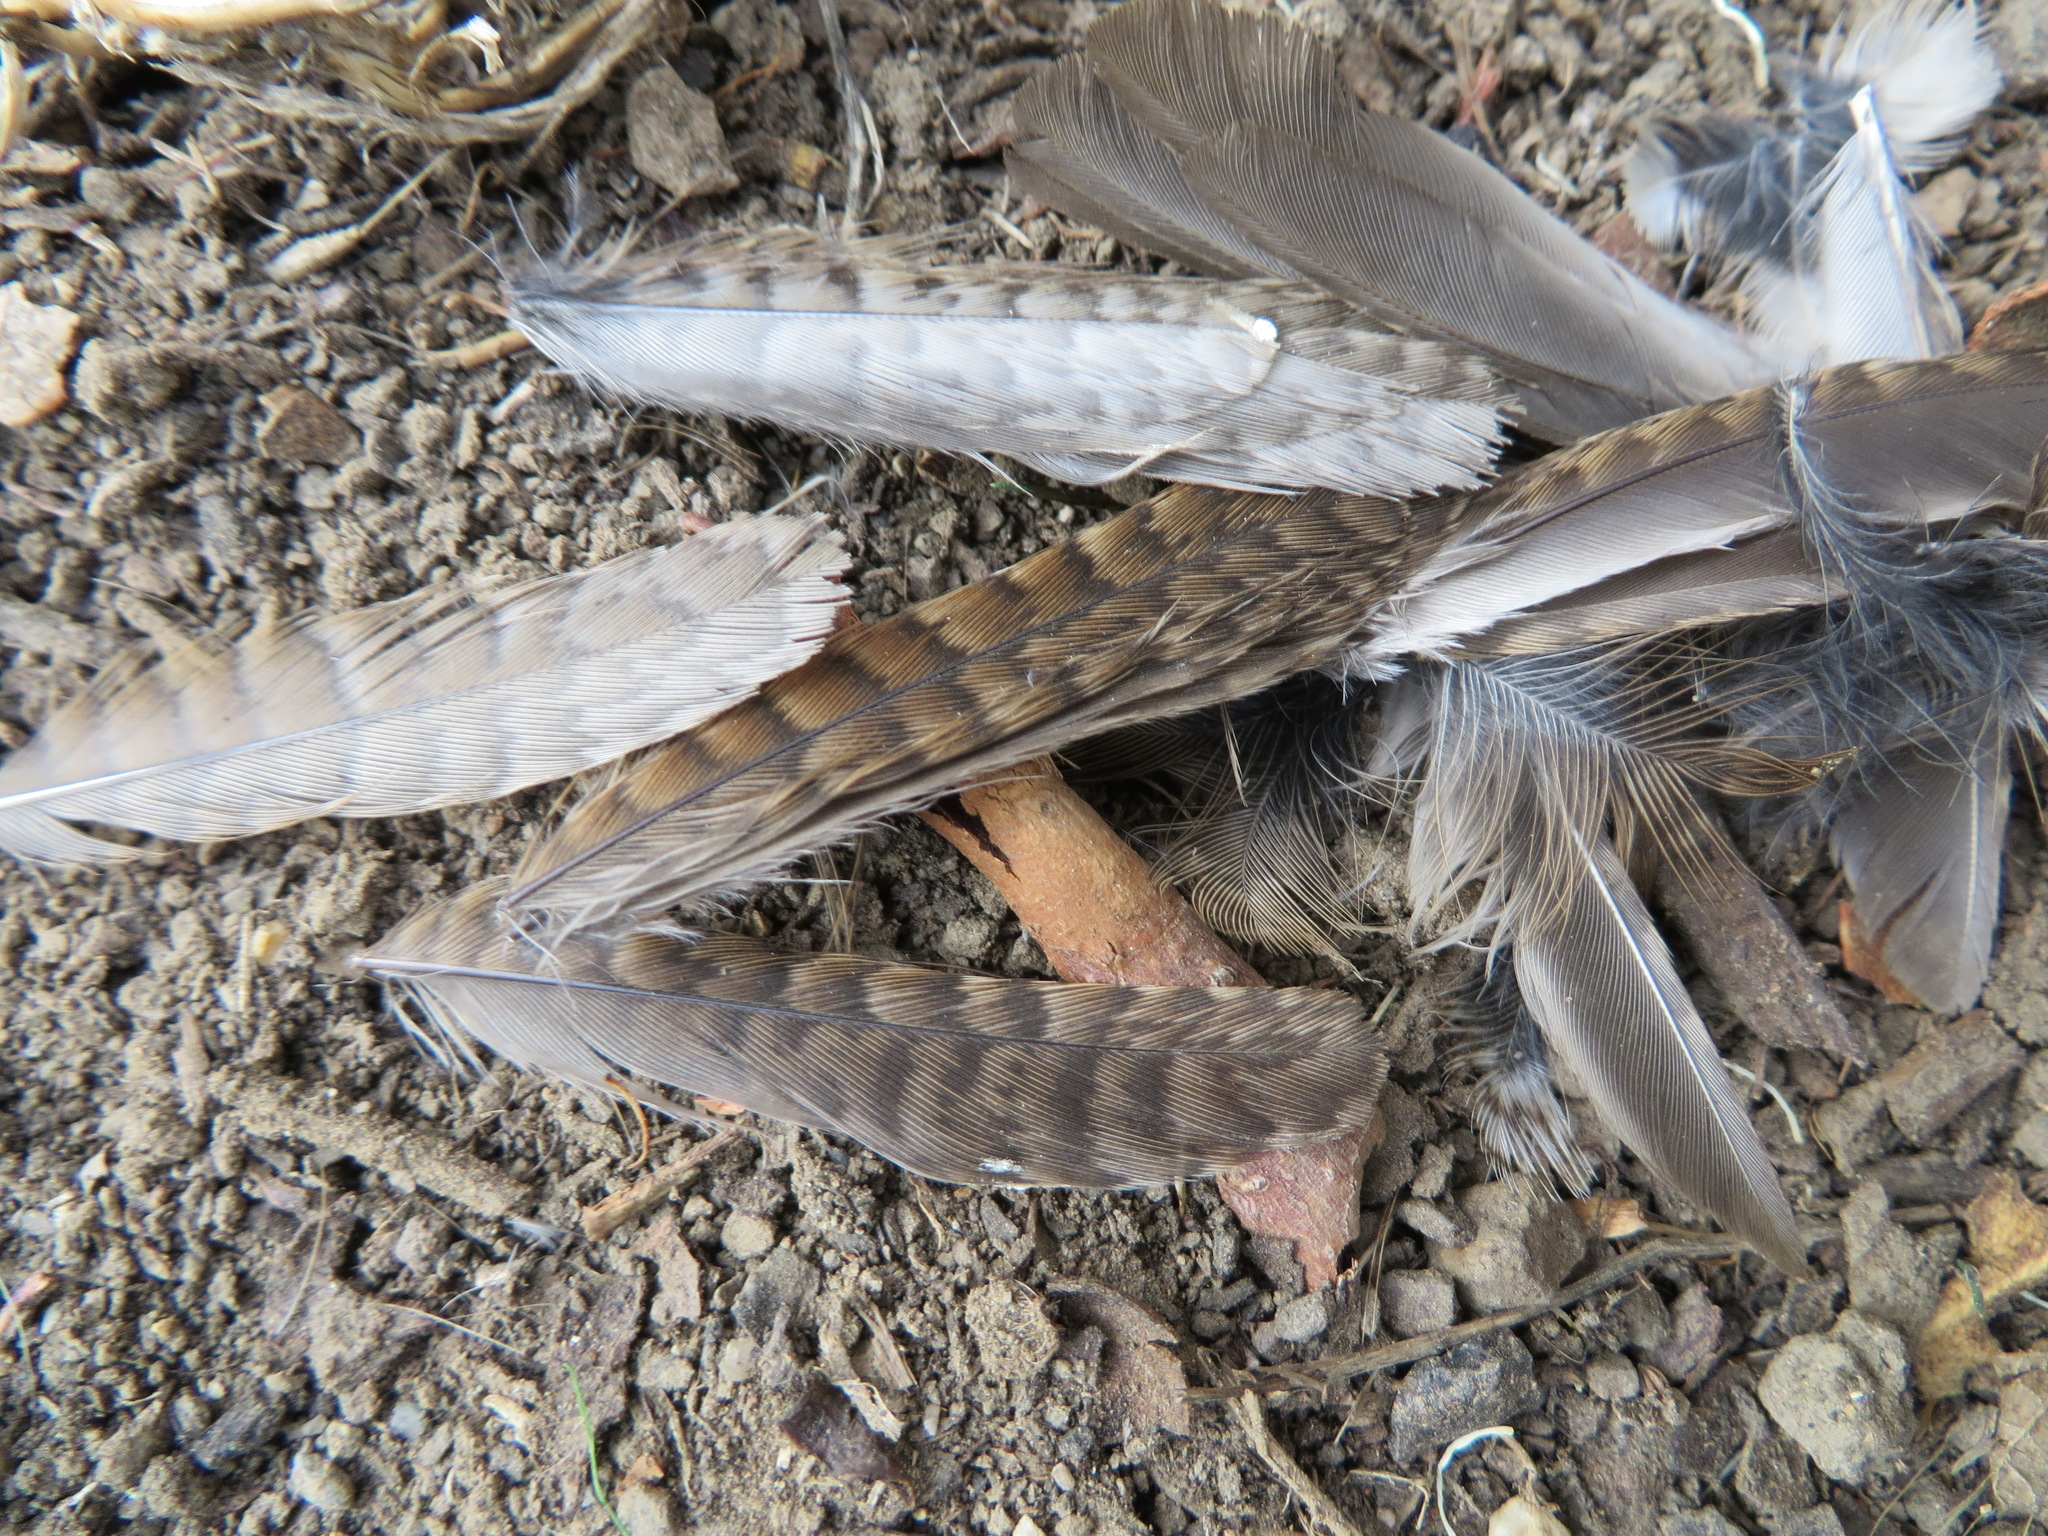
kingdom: Animalia
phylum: Chordata
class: Aves
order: Passeriformes
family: Troglodytidae
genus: Troglodytes
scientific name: Troglodytes aedon
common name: House wren
